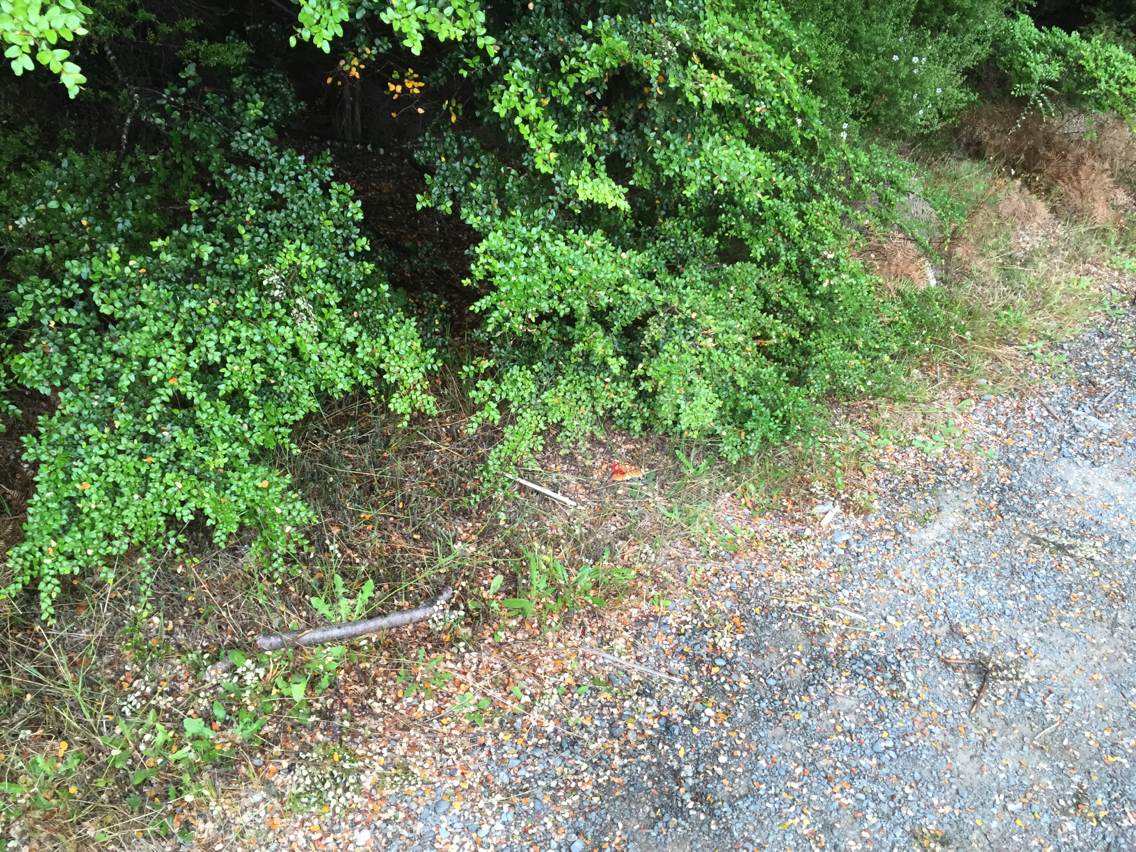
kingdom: Fungi
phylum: Basidiomycota
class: Agaricomycetes
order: Agaricales
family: Amanitaceae
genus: Amanita
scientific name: Amanita muscaria
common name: Fly agaric
